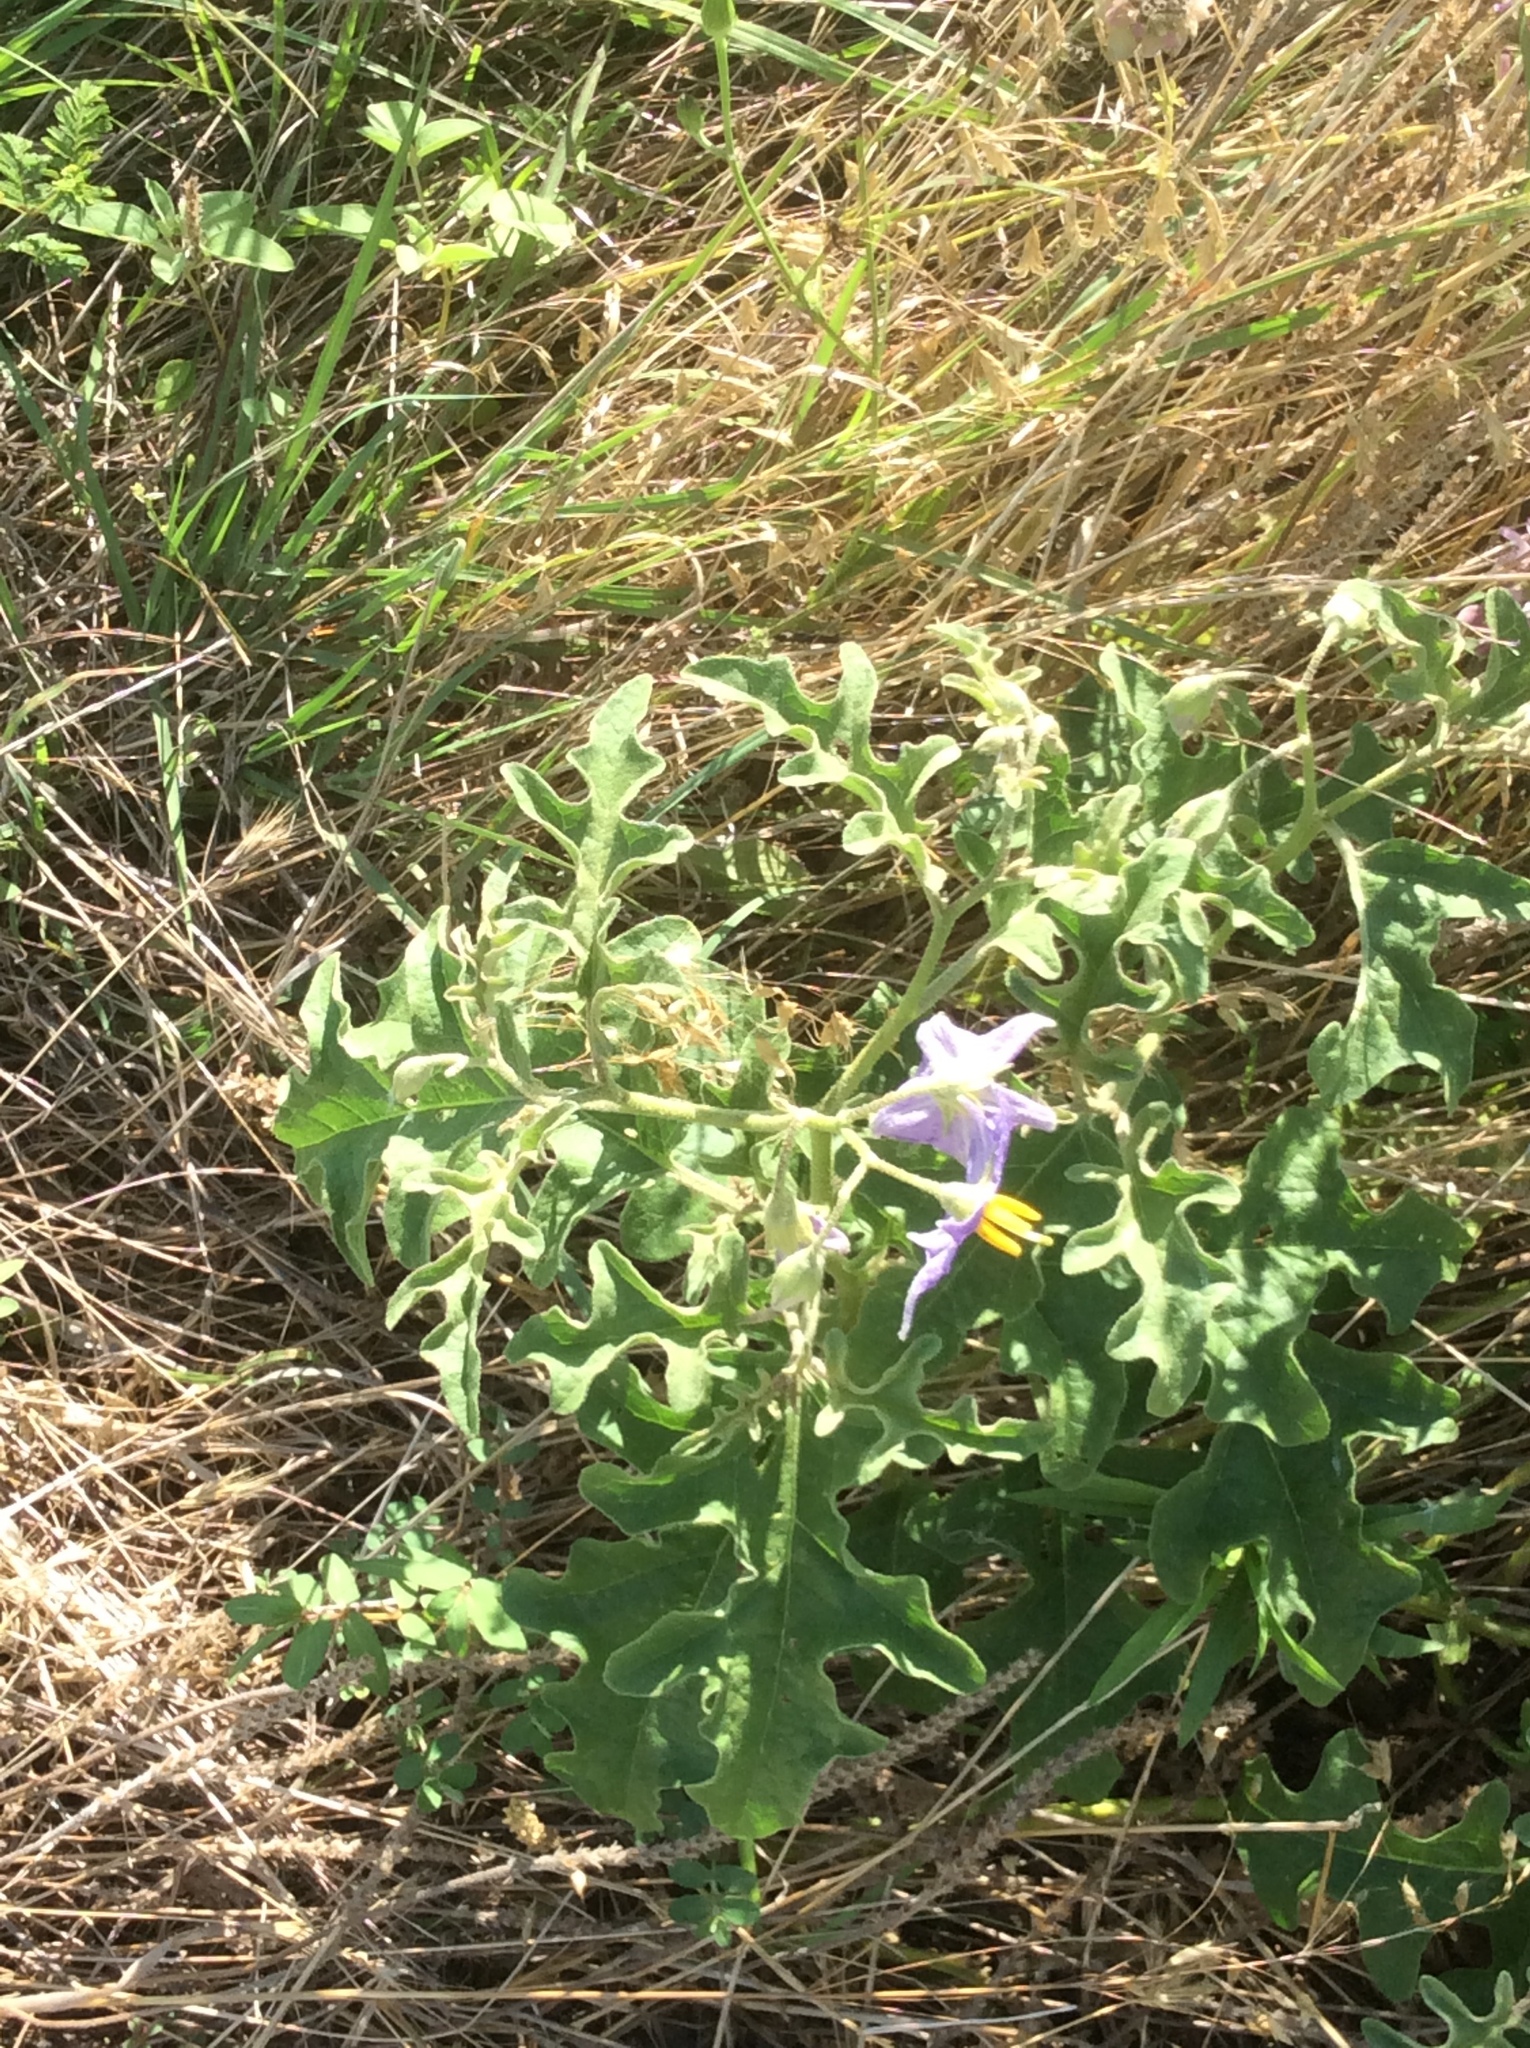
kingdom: Plantae
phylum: Tracheophyta
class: Magnoliopsida
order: Solanales
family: Solanaceae
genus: Solanum
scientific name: Solanum dimidiatum
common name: Carolina horse-nettle
